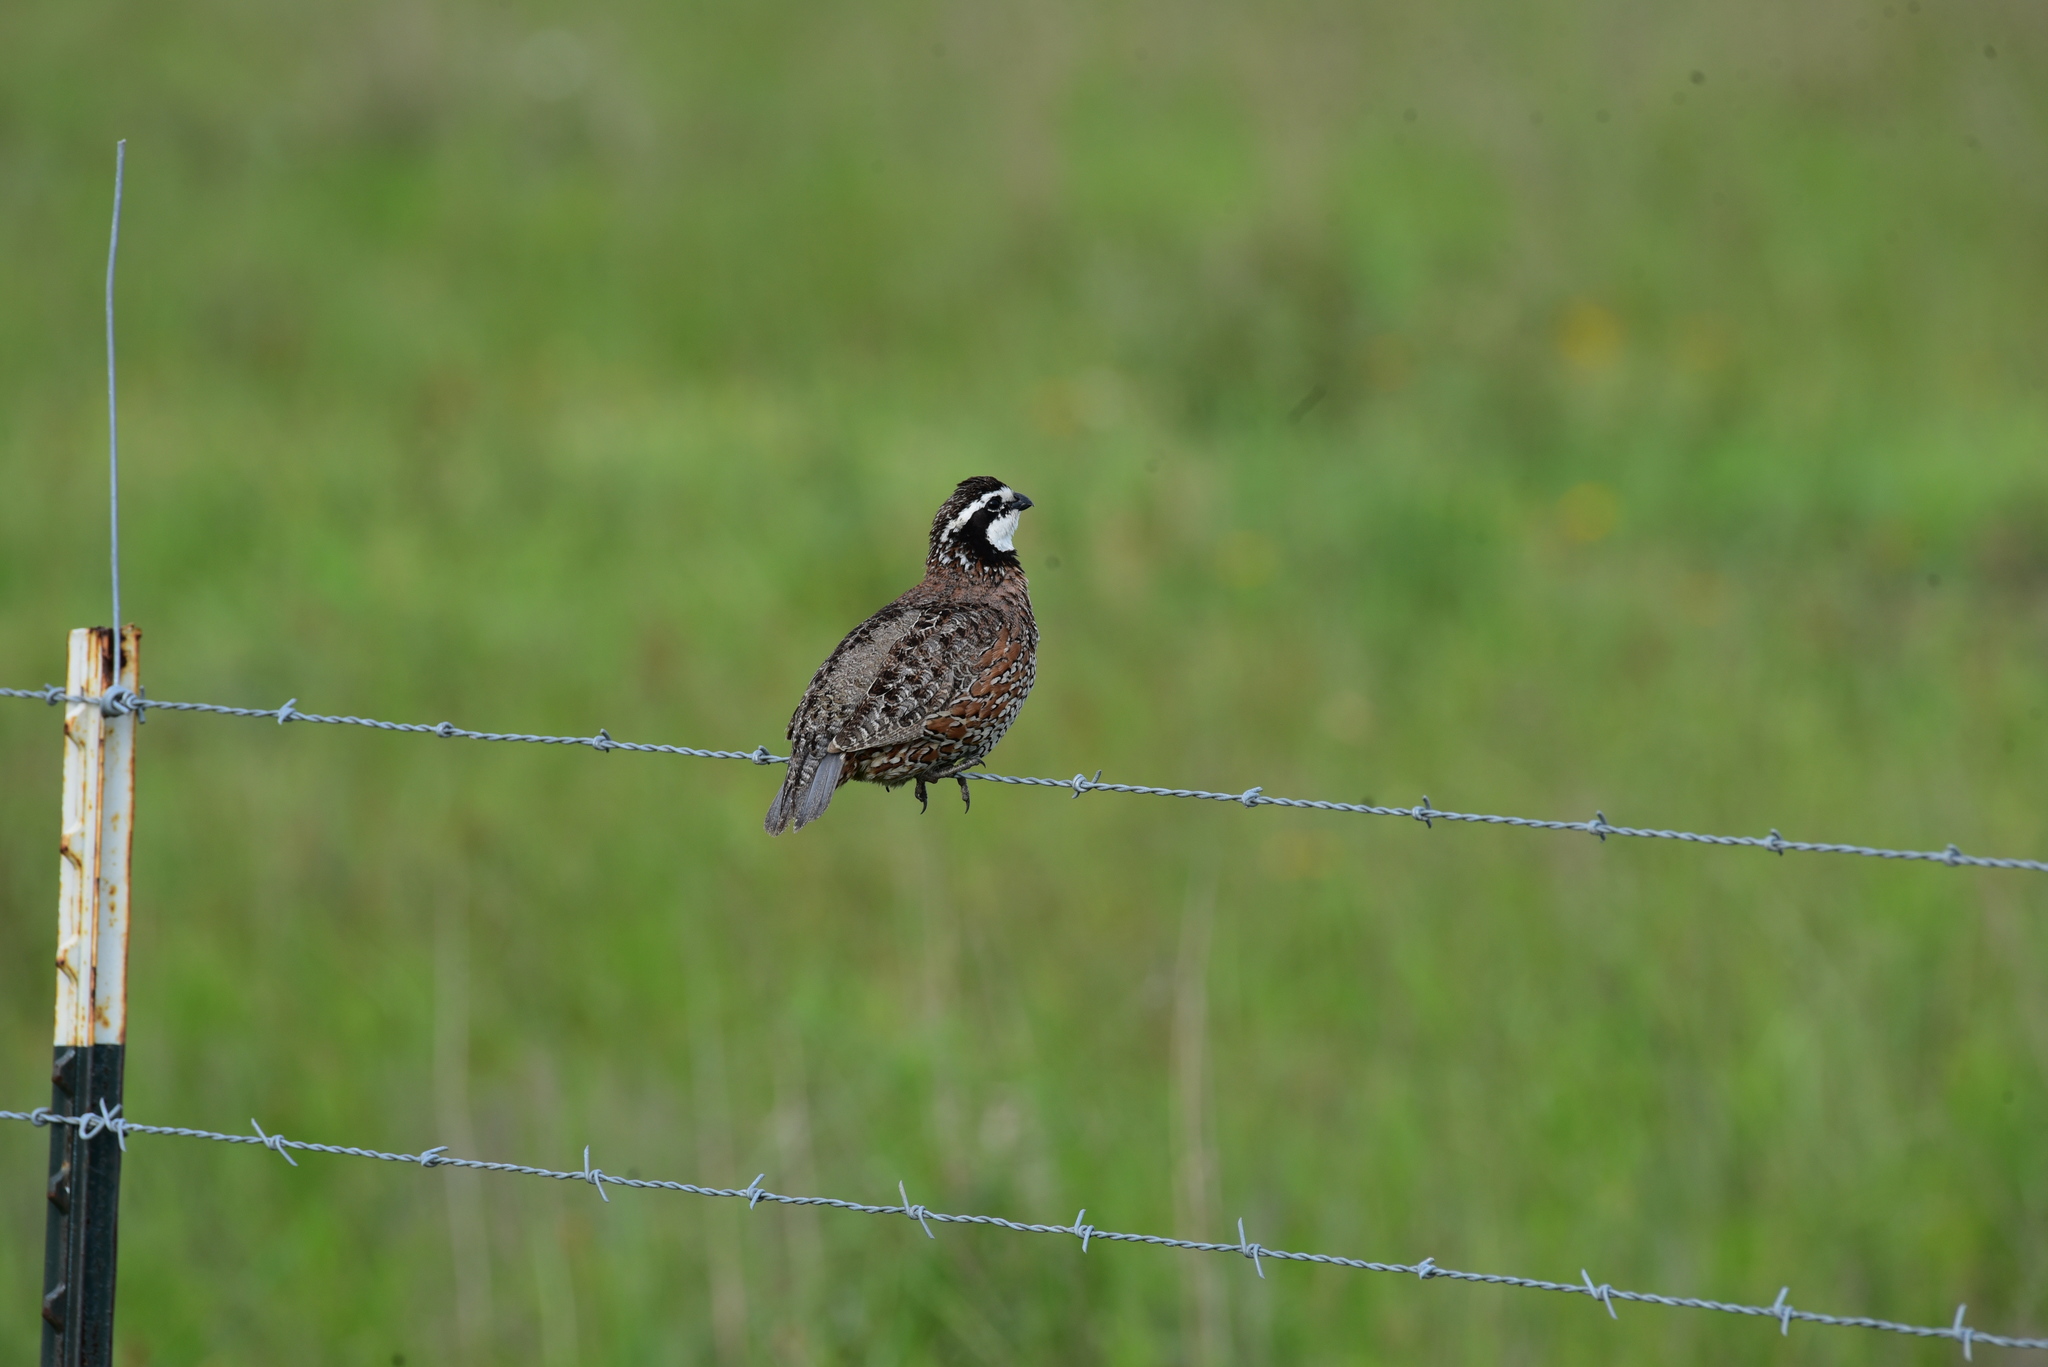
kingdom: Animalia
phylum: Chordata
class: Aves
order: Galliformes
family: Odontophoridae
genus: Colinus
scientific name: Colinus virginianus
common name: Northern bobwhite
